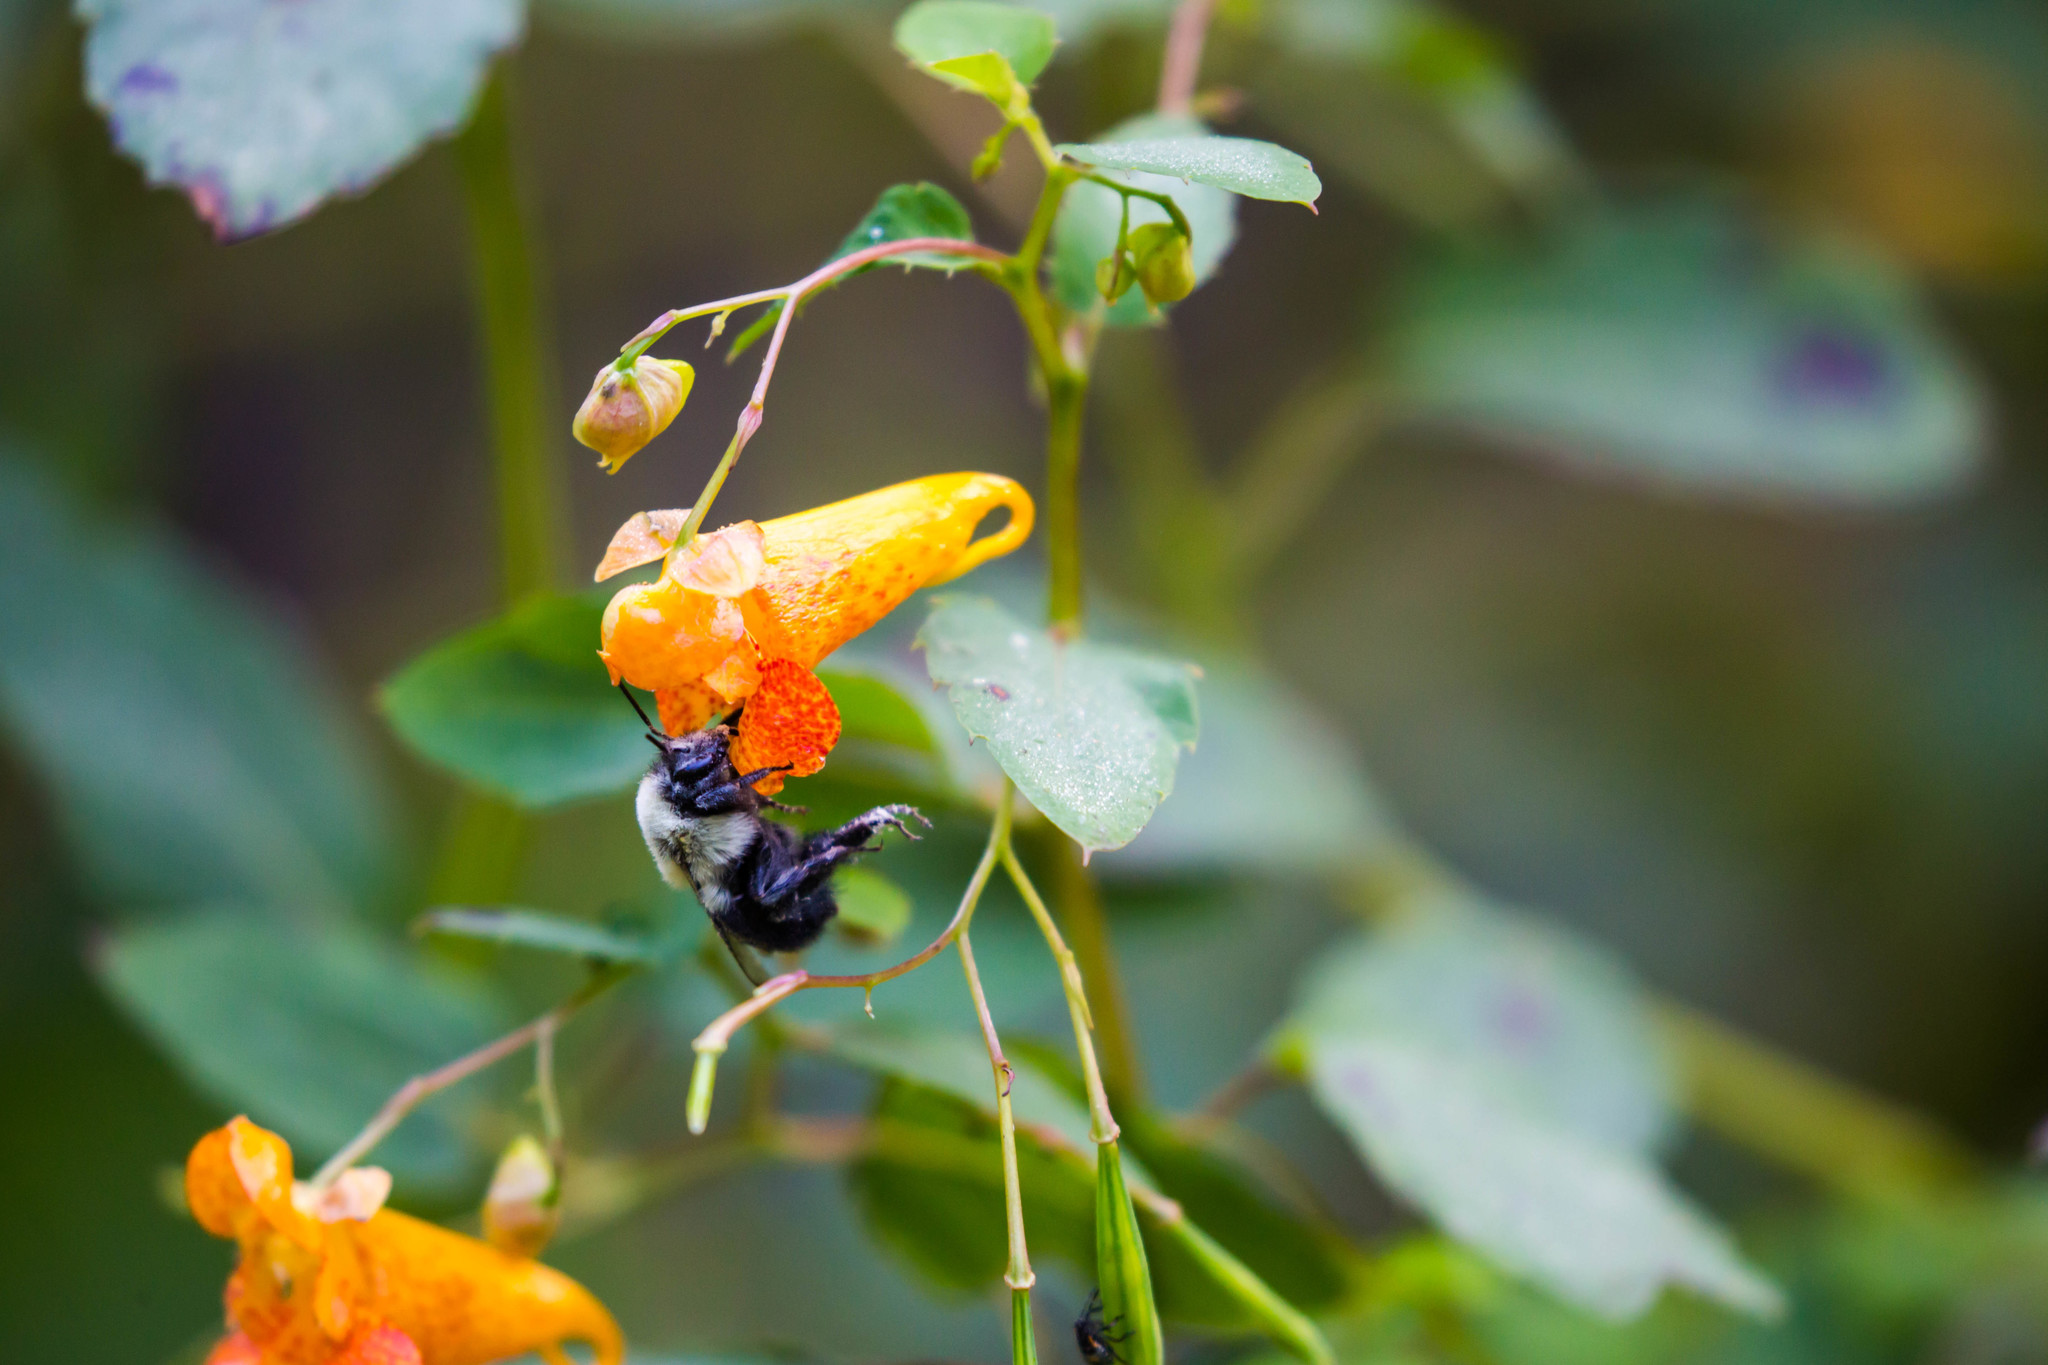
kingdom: Animalia
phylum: Arthropoda
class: Insecta
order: Hymenoptera
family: Apidae
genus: Bombus
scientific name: Bombus impatiens
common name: Common eastern bumble bee
